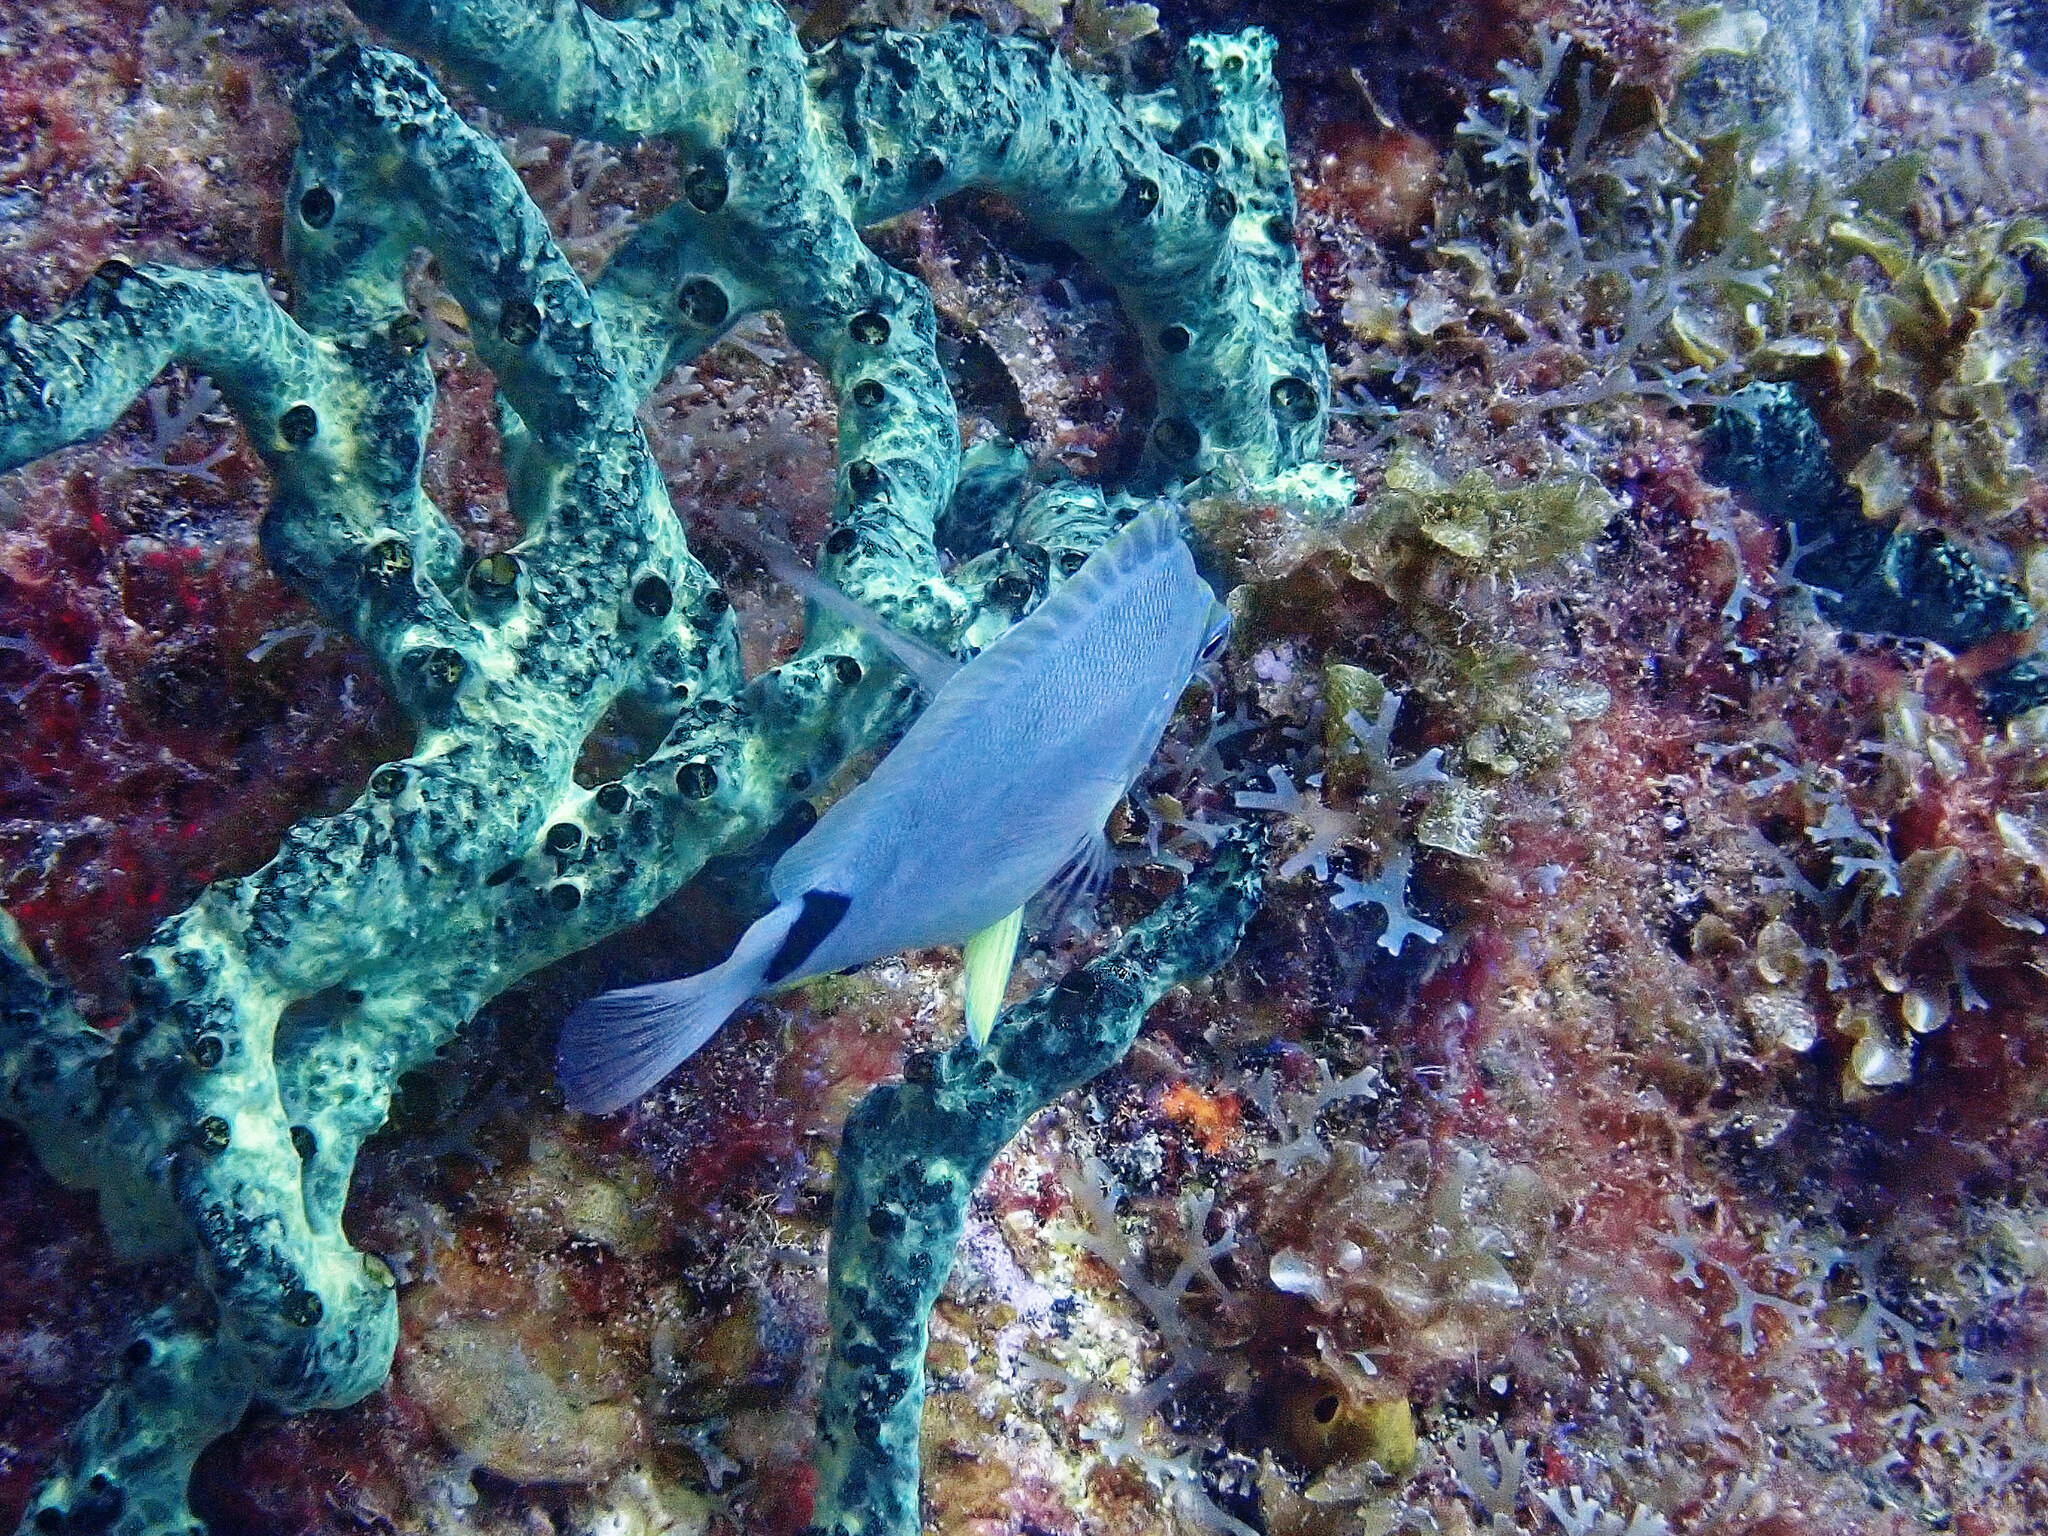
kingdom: Animalia
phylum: Chordata
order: Perciformes
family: Serranidae
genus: Hypoplectrus
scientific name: Hypoplectrus unicolor
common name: Butter hamlet
